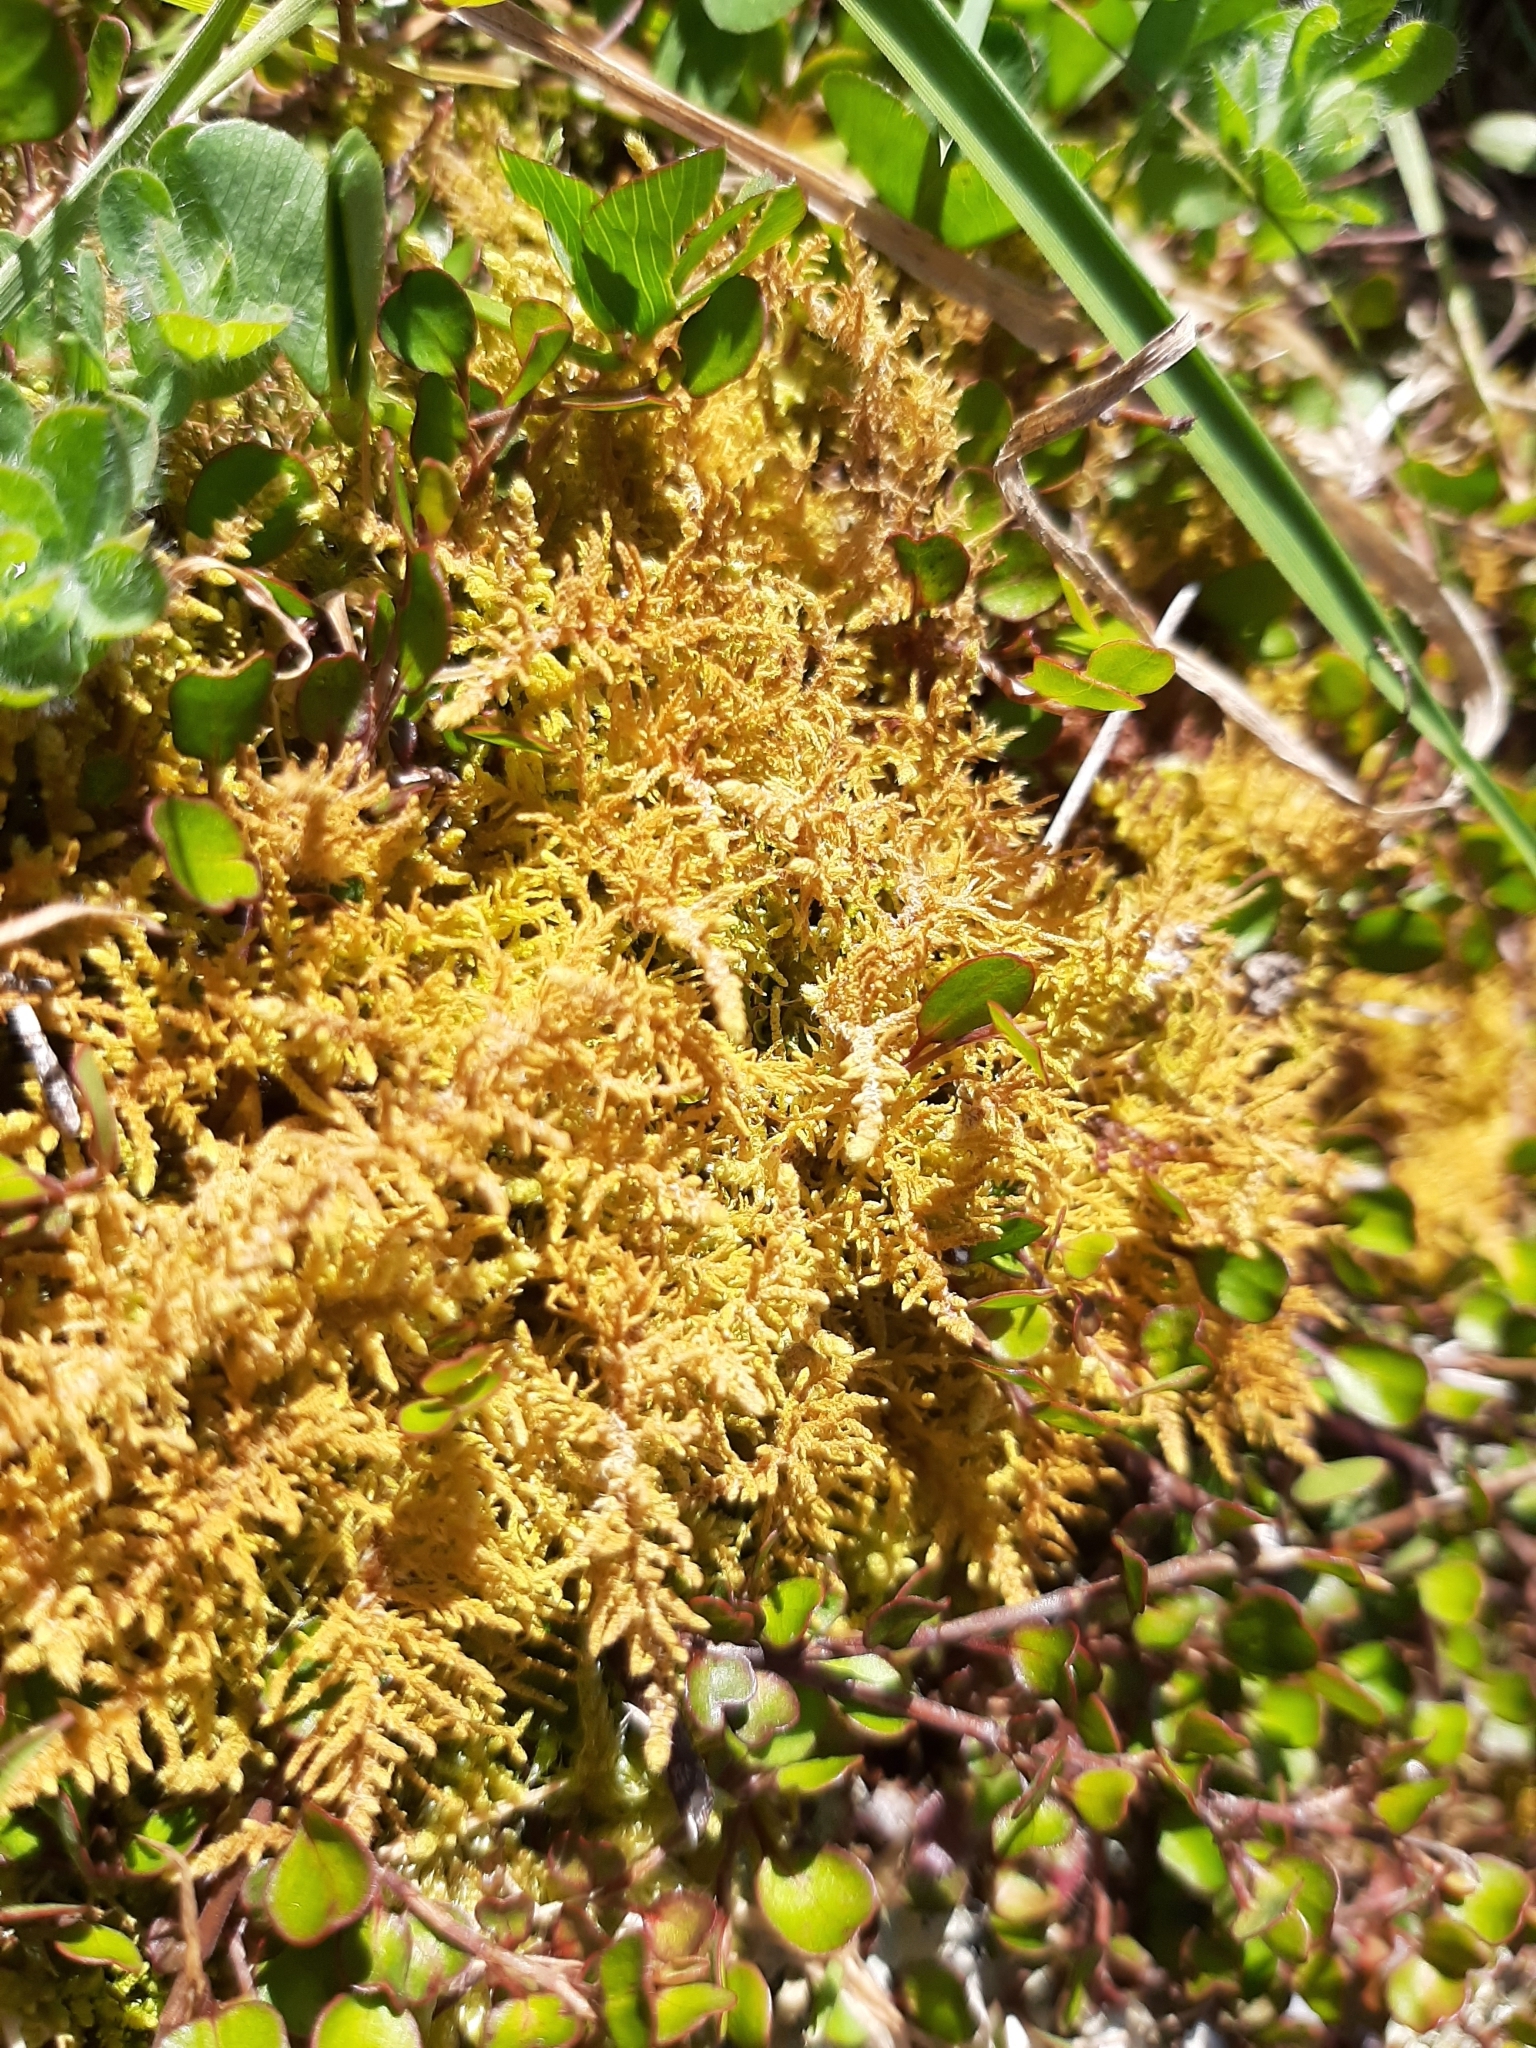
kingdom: Plantae
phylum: Bryophyta
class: Bryopsida
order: Hypnales
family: Thuidiaceae
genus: Thuidiopsis
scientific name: Thuidiopsis furfurosa
